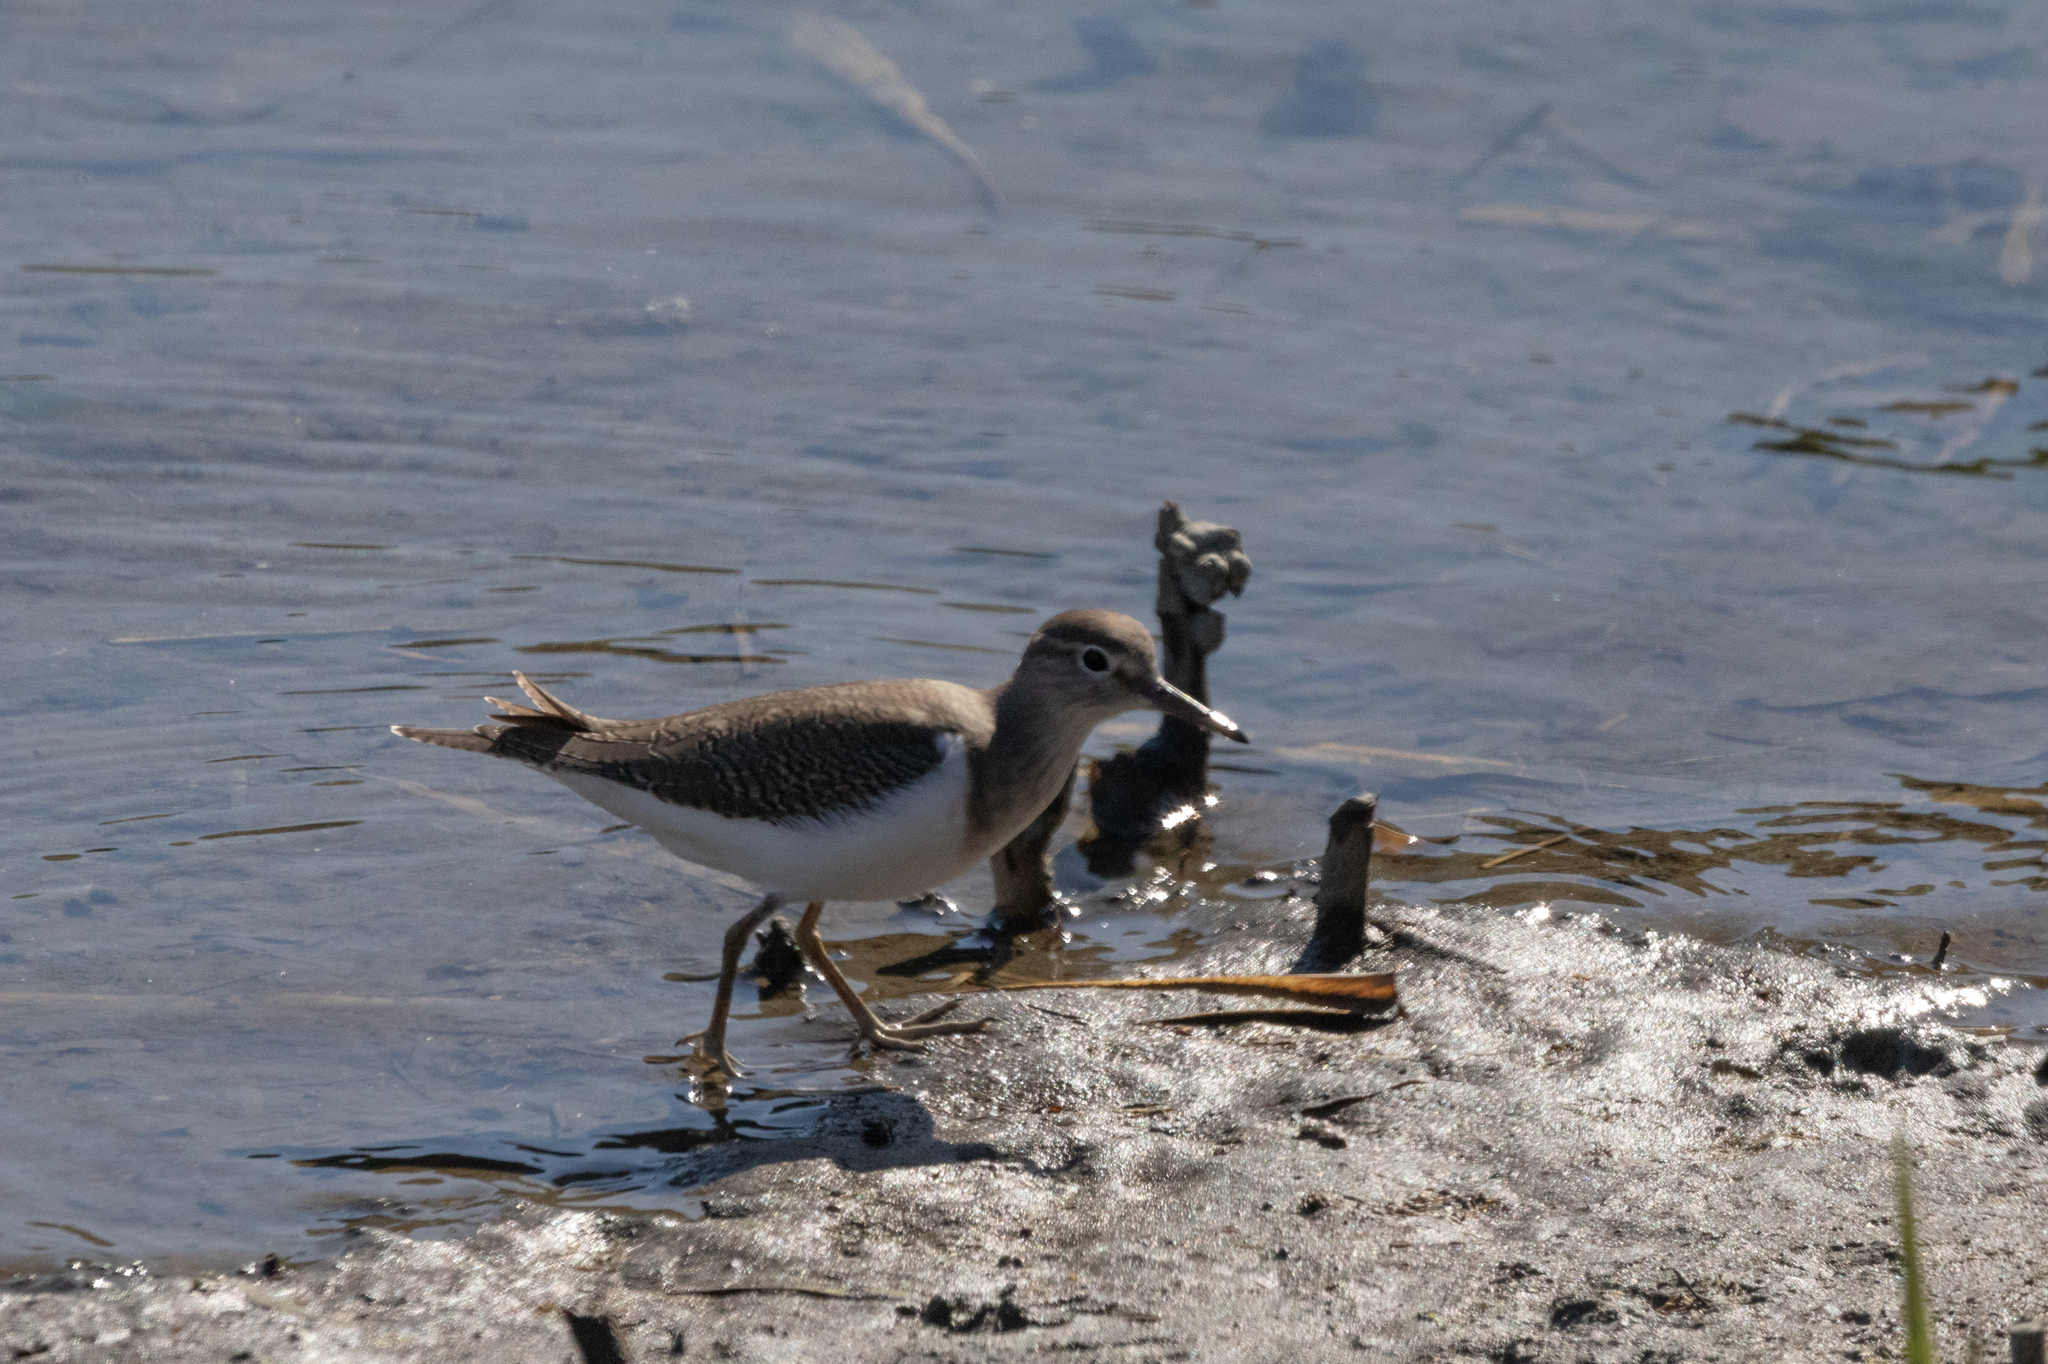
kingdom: Animalia
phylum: Chordata
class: Aves
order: Charadriiformes
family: Scolopacidae
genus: Actitis
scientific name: Actitis hypoleucos
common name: Common sandpiper
